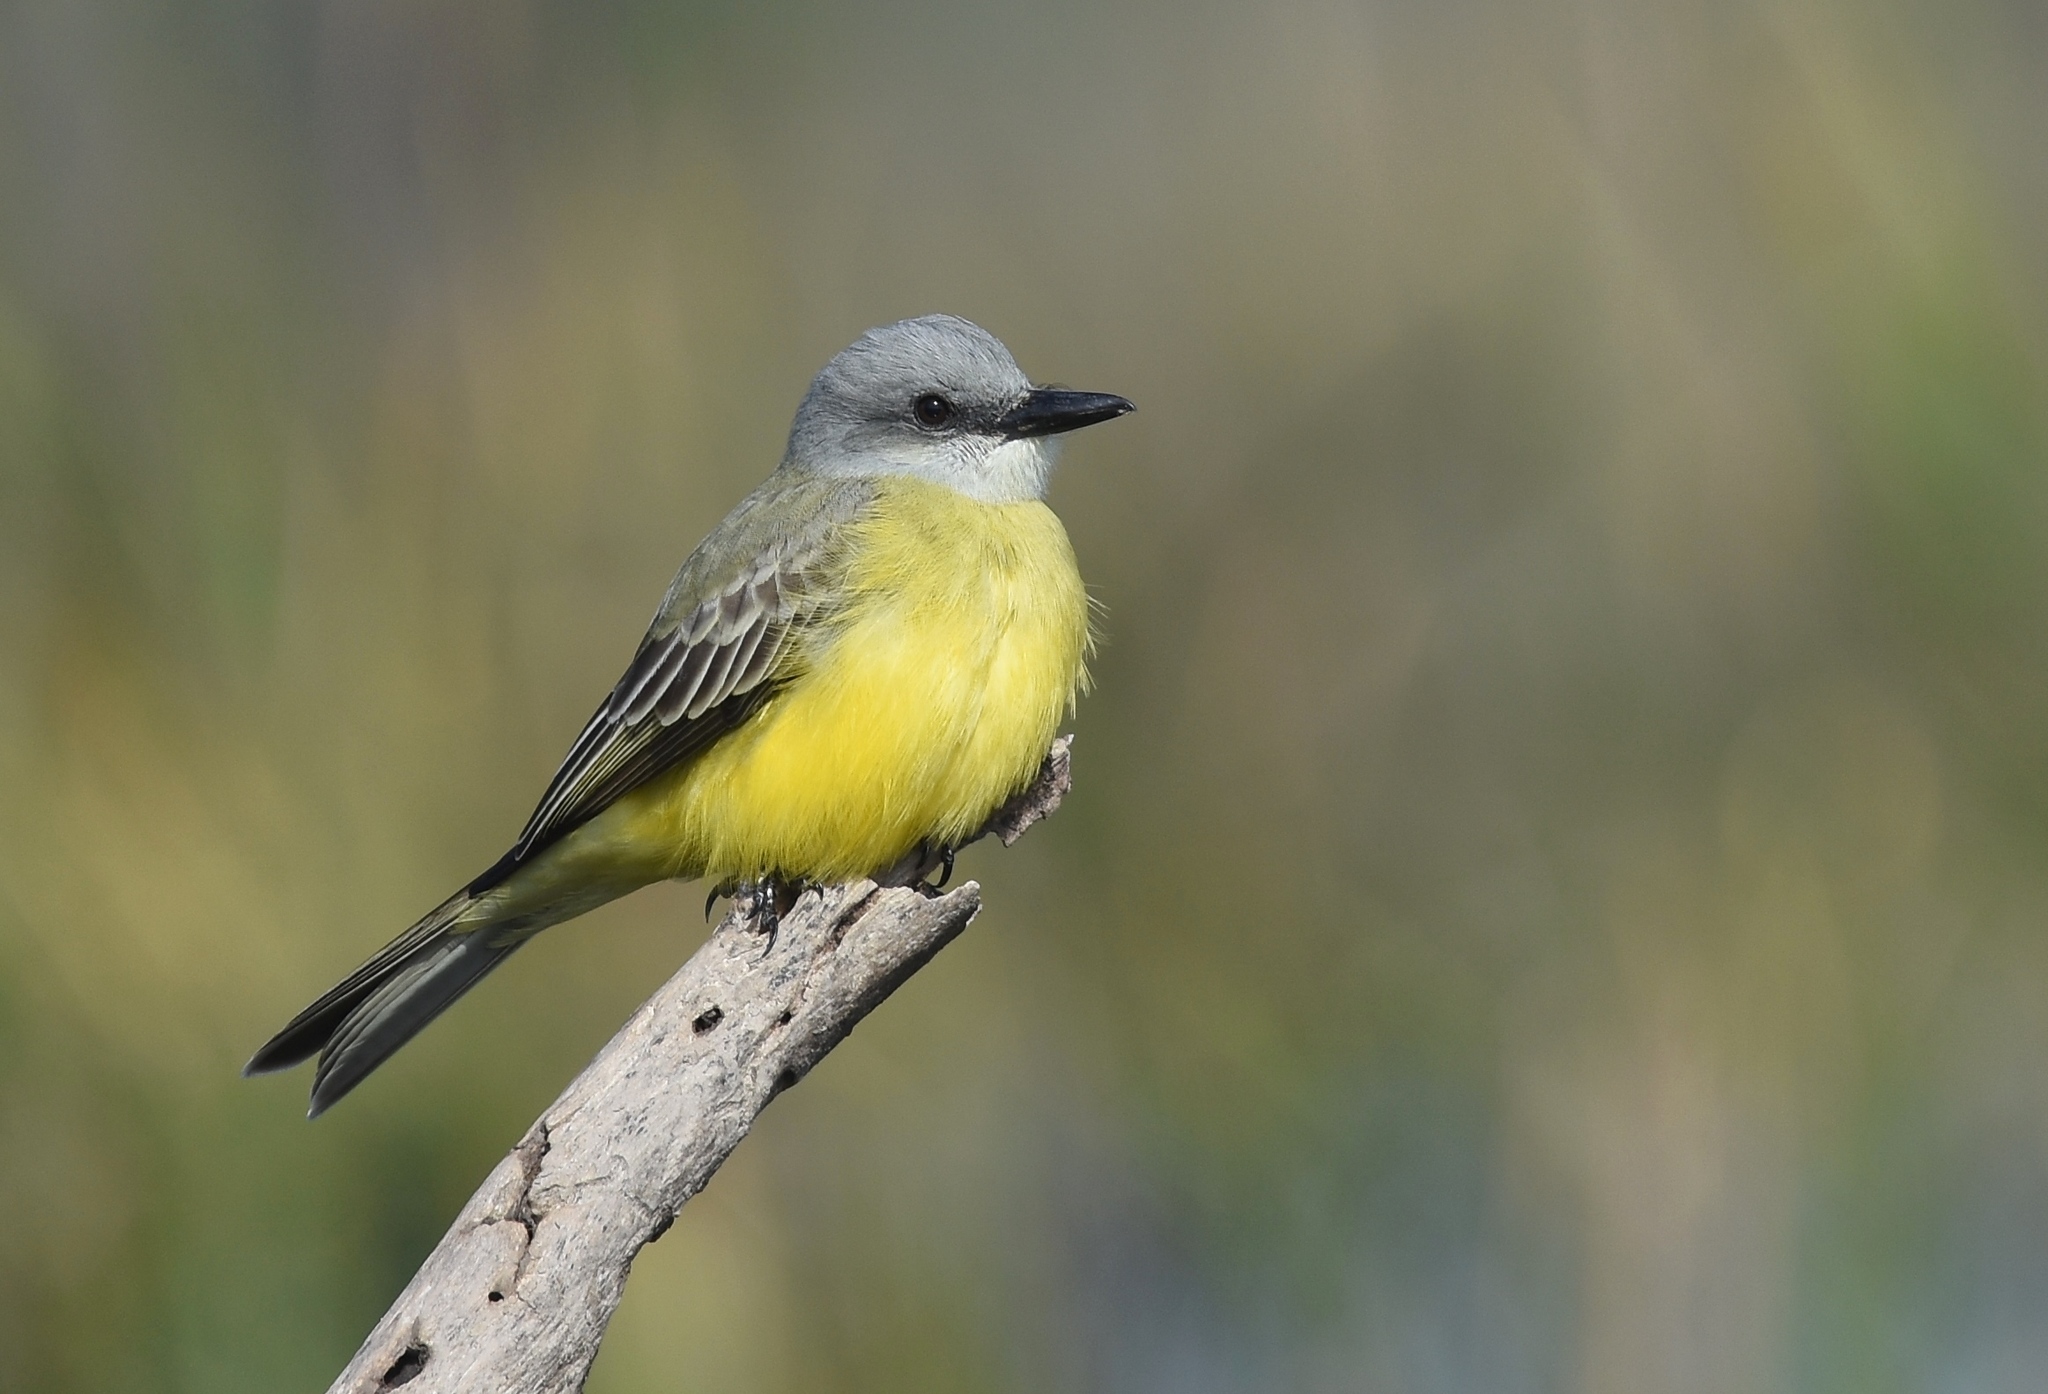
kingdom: Animalia
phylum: Chordata
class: Aves
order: Passeriformes
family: Tyrannidae
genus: Tyrannus
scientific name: Tyrannus
